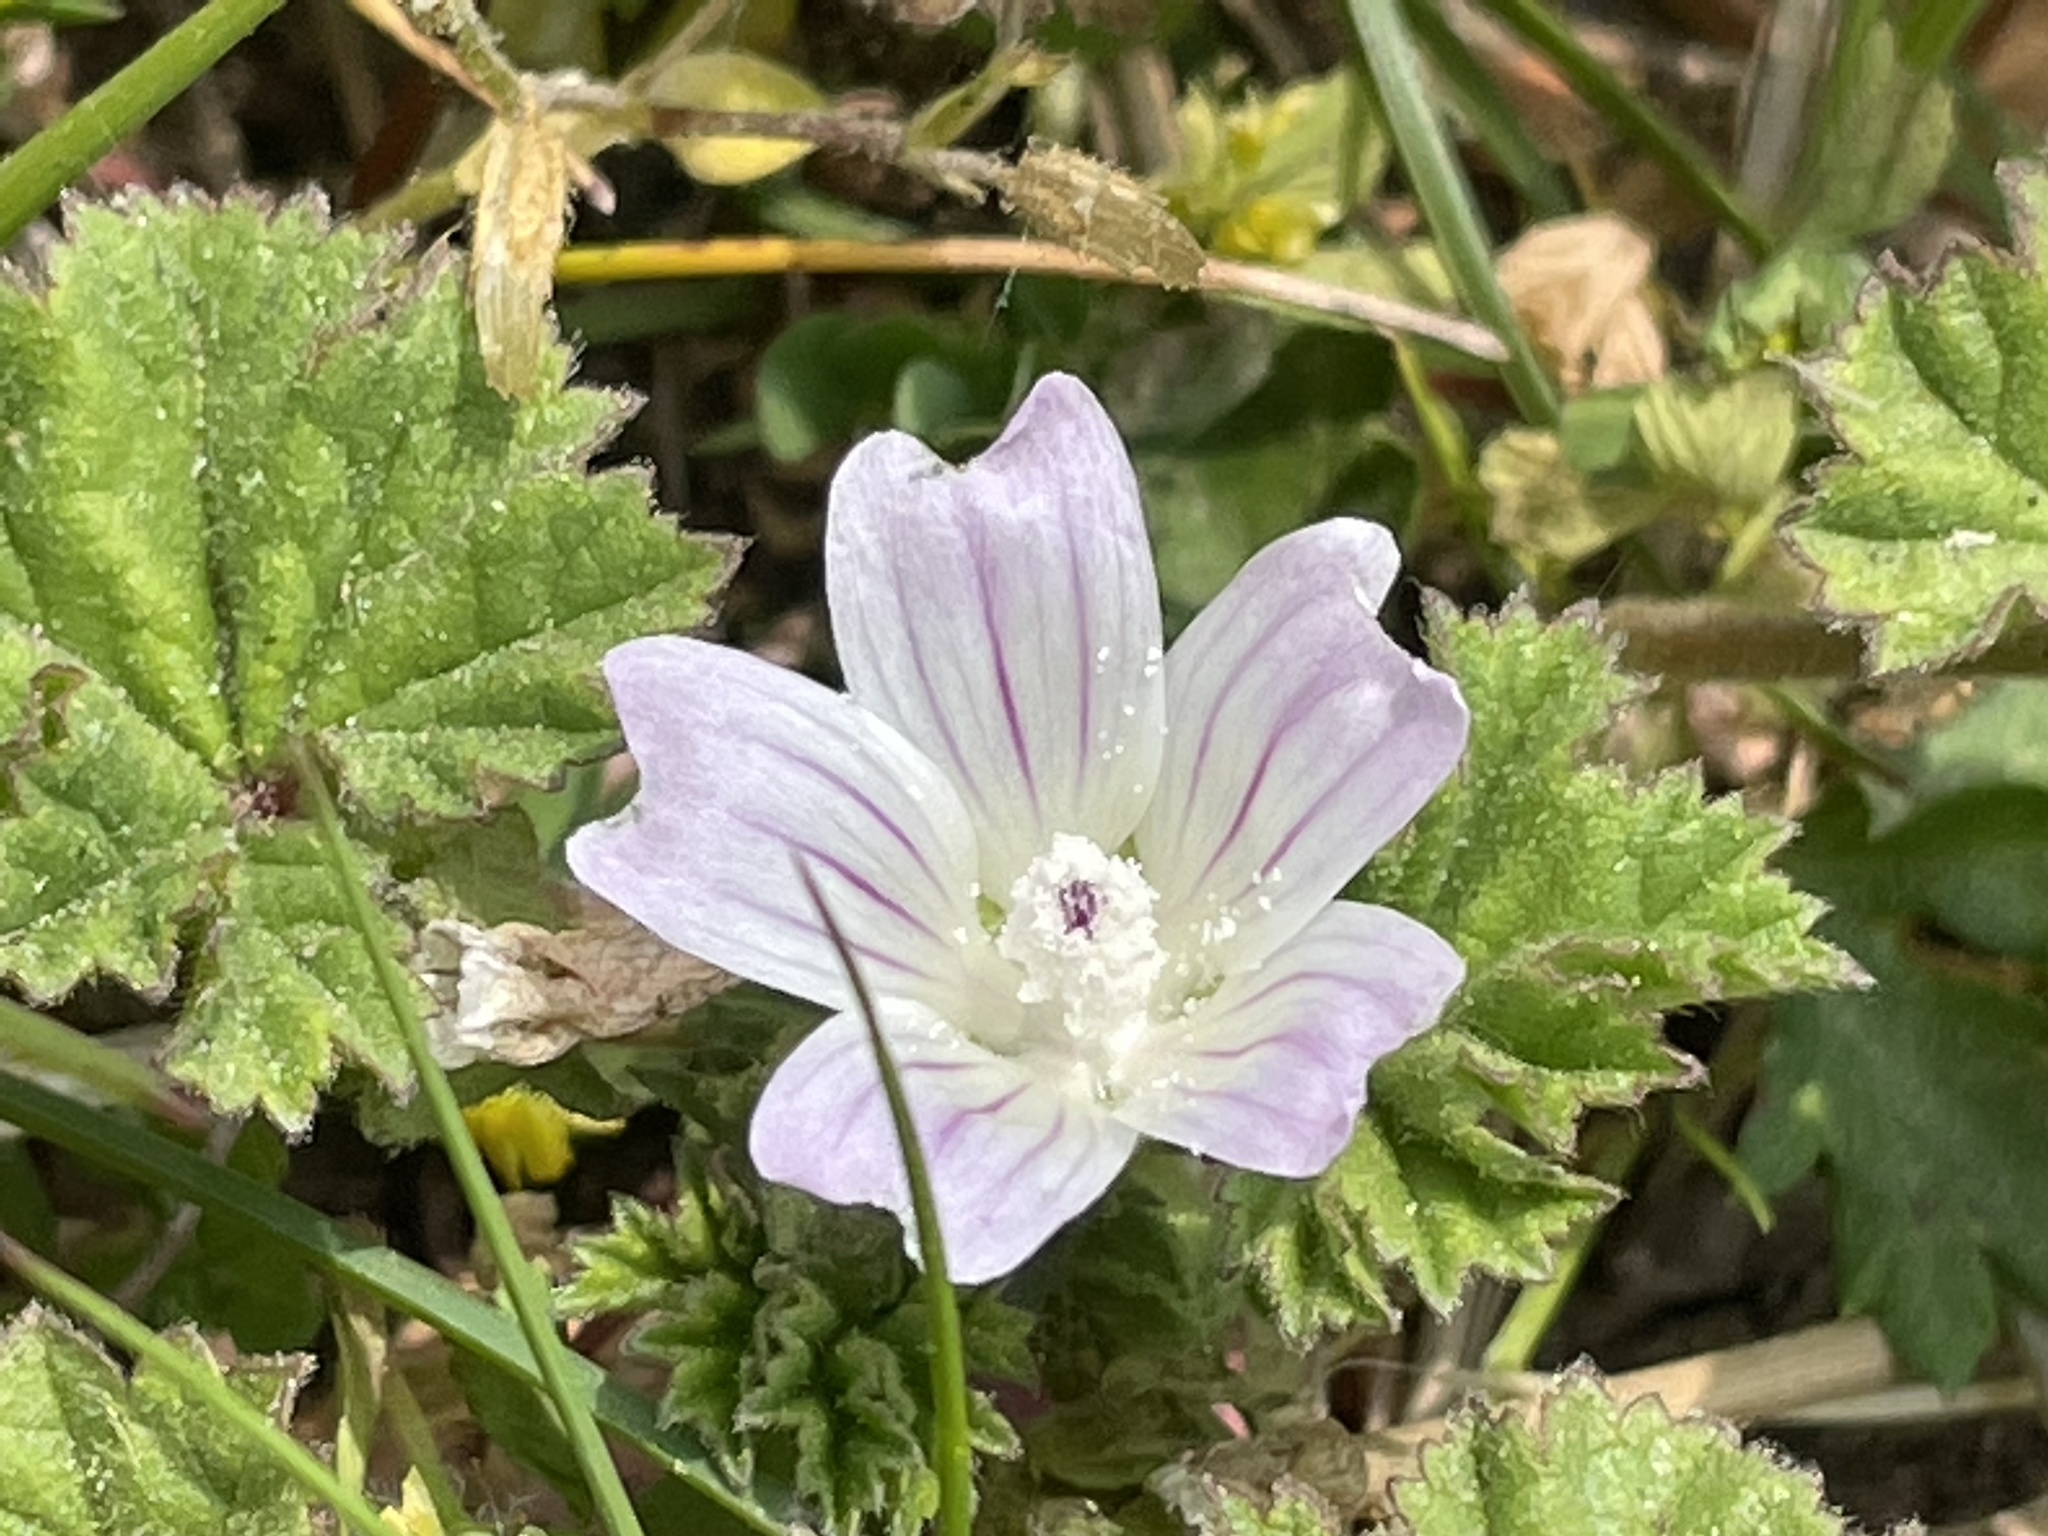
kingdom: Plantae
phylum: Tracheophyta
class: Magnoliopsida
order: Malvales
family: Malvaceae
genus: Malva
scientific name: Malva neglecta
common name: Common mallow
